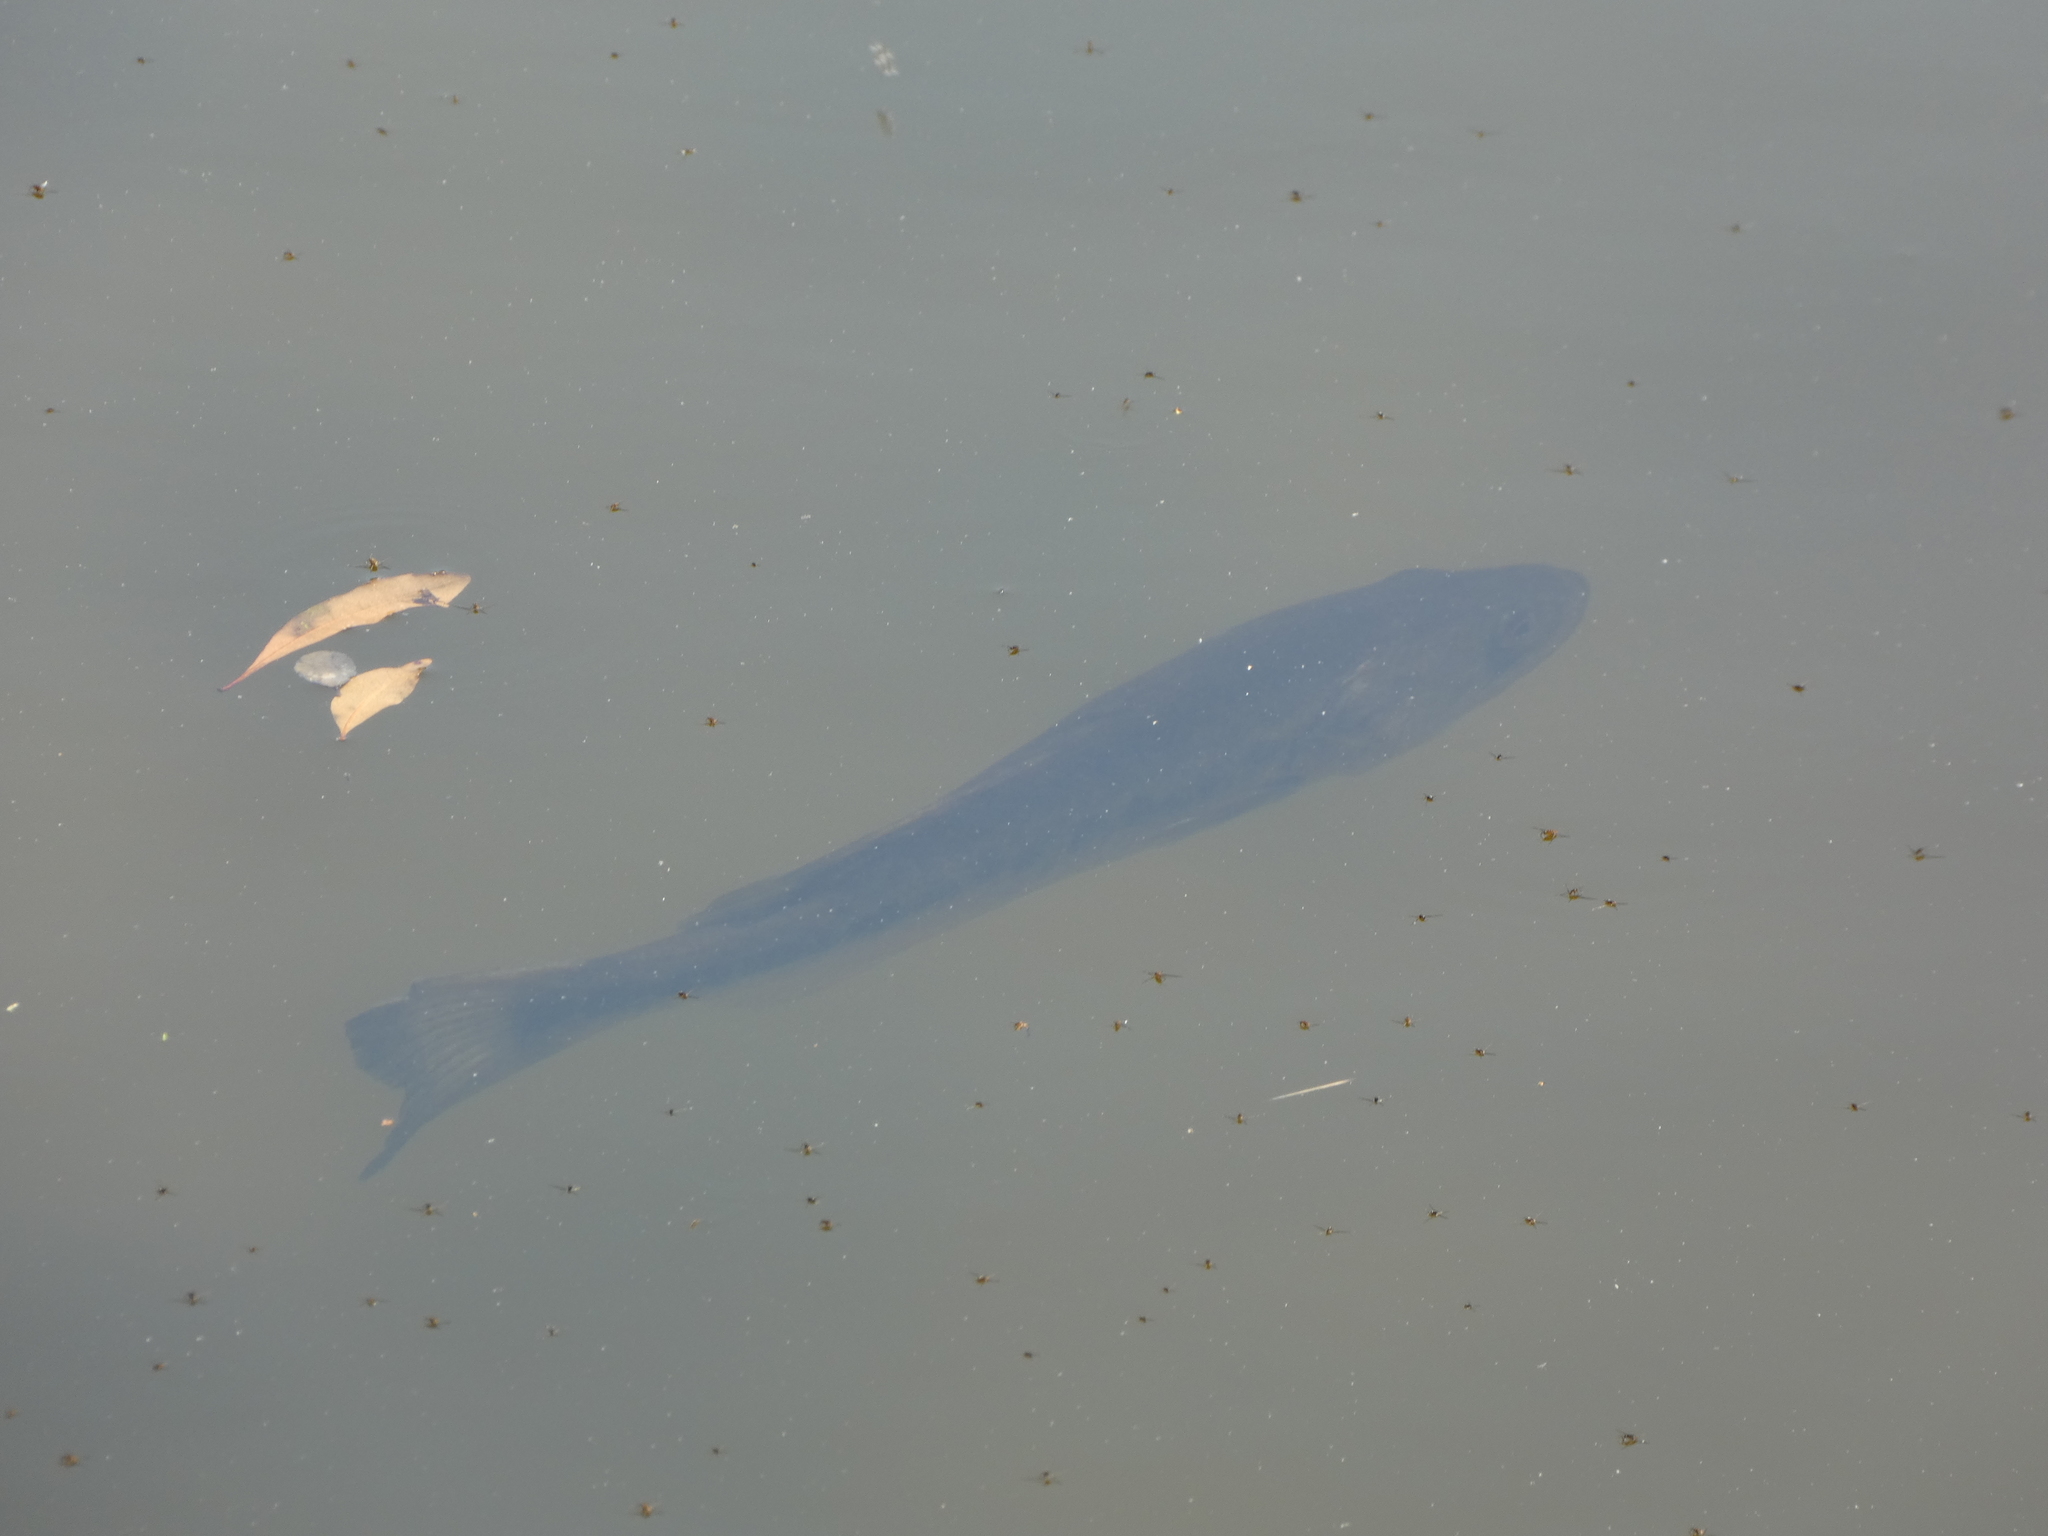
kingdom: Animalia
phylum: Chordata
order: Perciformes
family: Centrarchidae
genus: Micropterus
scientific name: Micropterus salmoides
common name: Largemouth bass
